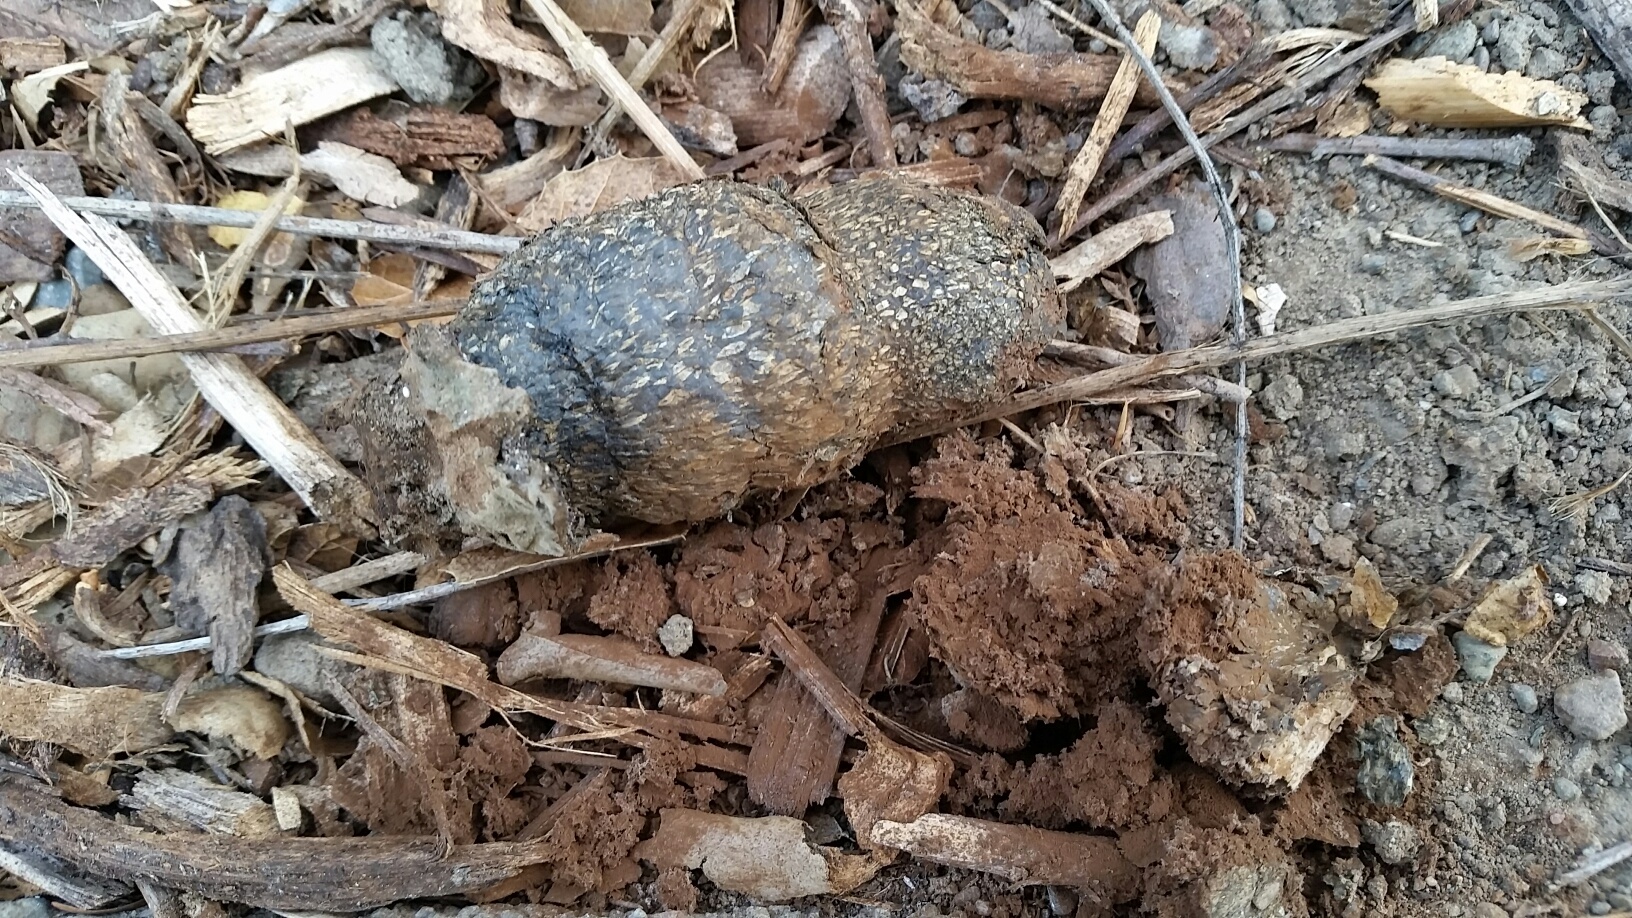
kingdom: Fungi
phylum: Basidiomycota
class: Agaricomycetes
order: Boletales
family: Sclerodermataceae
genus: Pisolithus
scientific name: Pisolithus arhizus
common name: Dyeball
